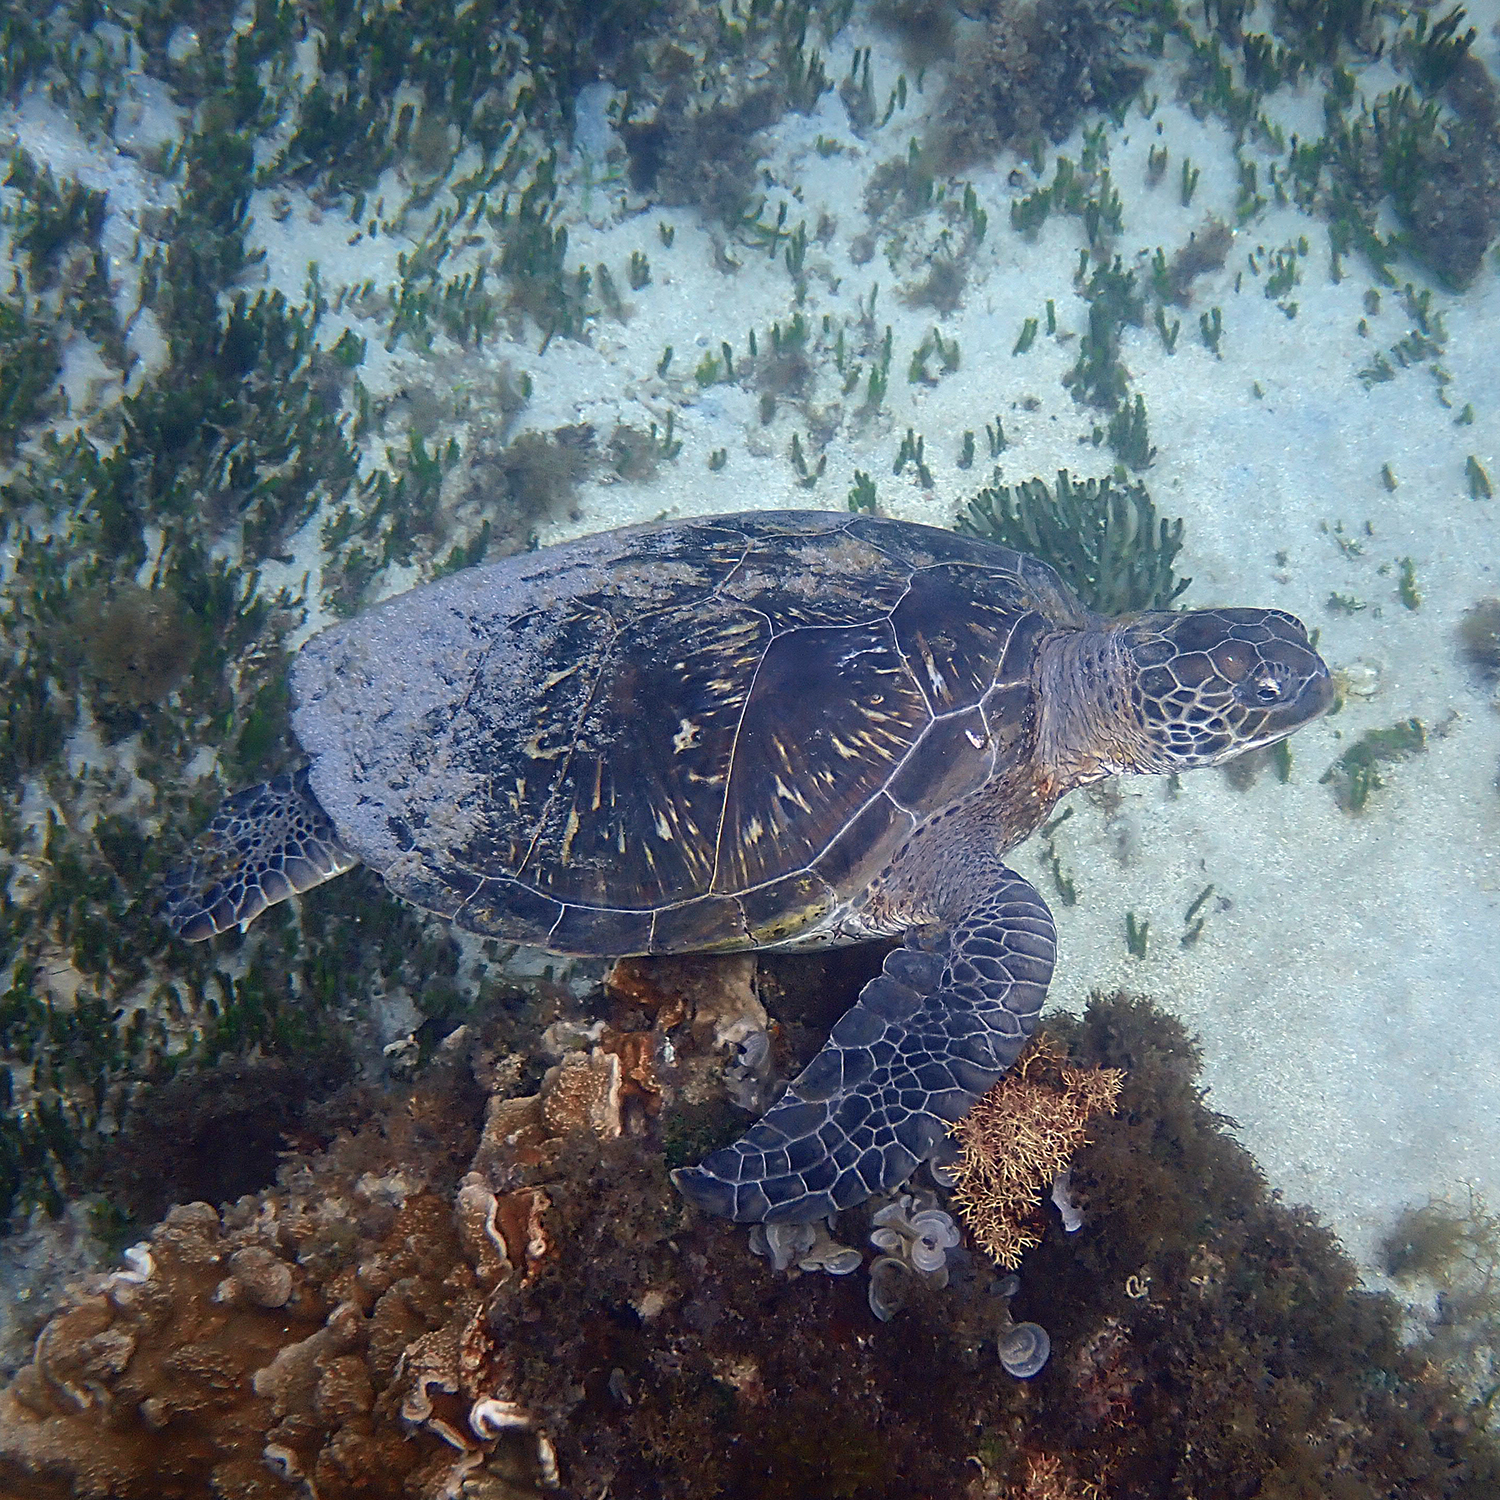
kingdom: Animalia
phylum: Chordata
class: Testudines
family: Cheloniidae
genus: Chelonia
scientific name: Chelonia mydas
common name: Green turtle
